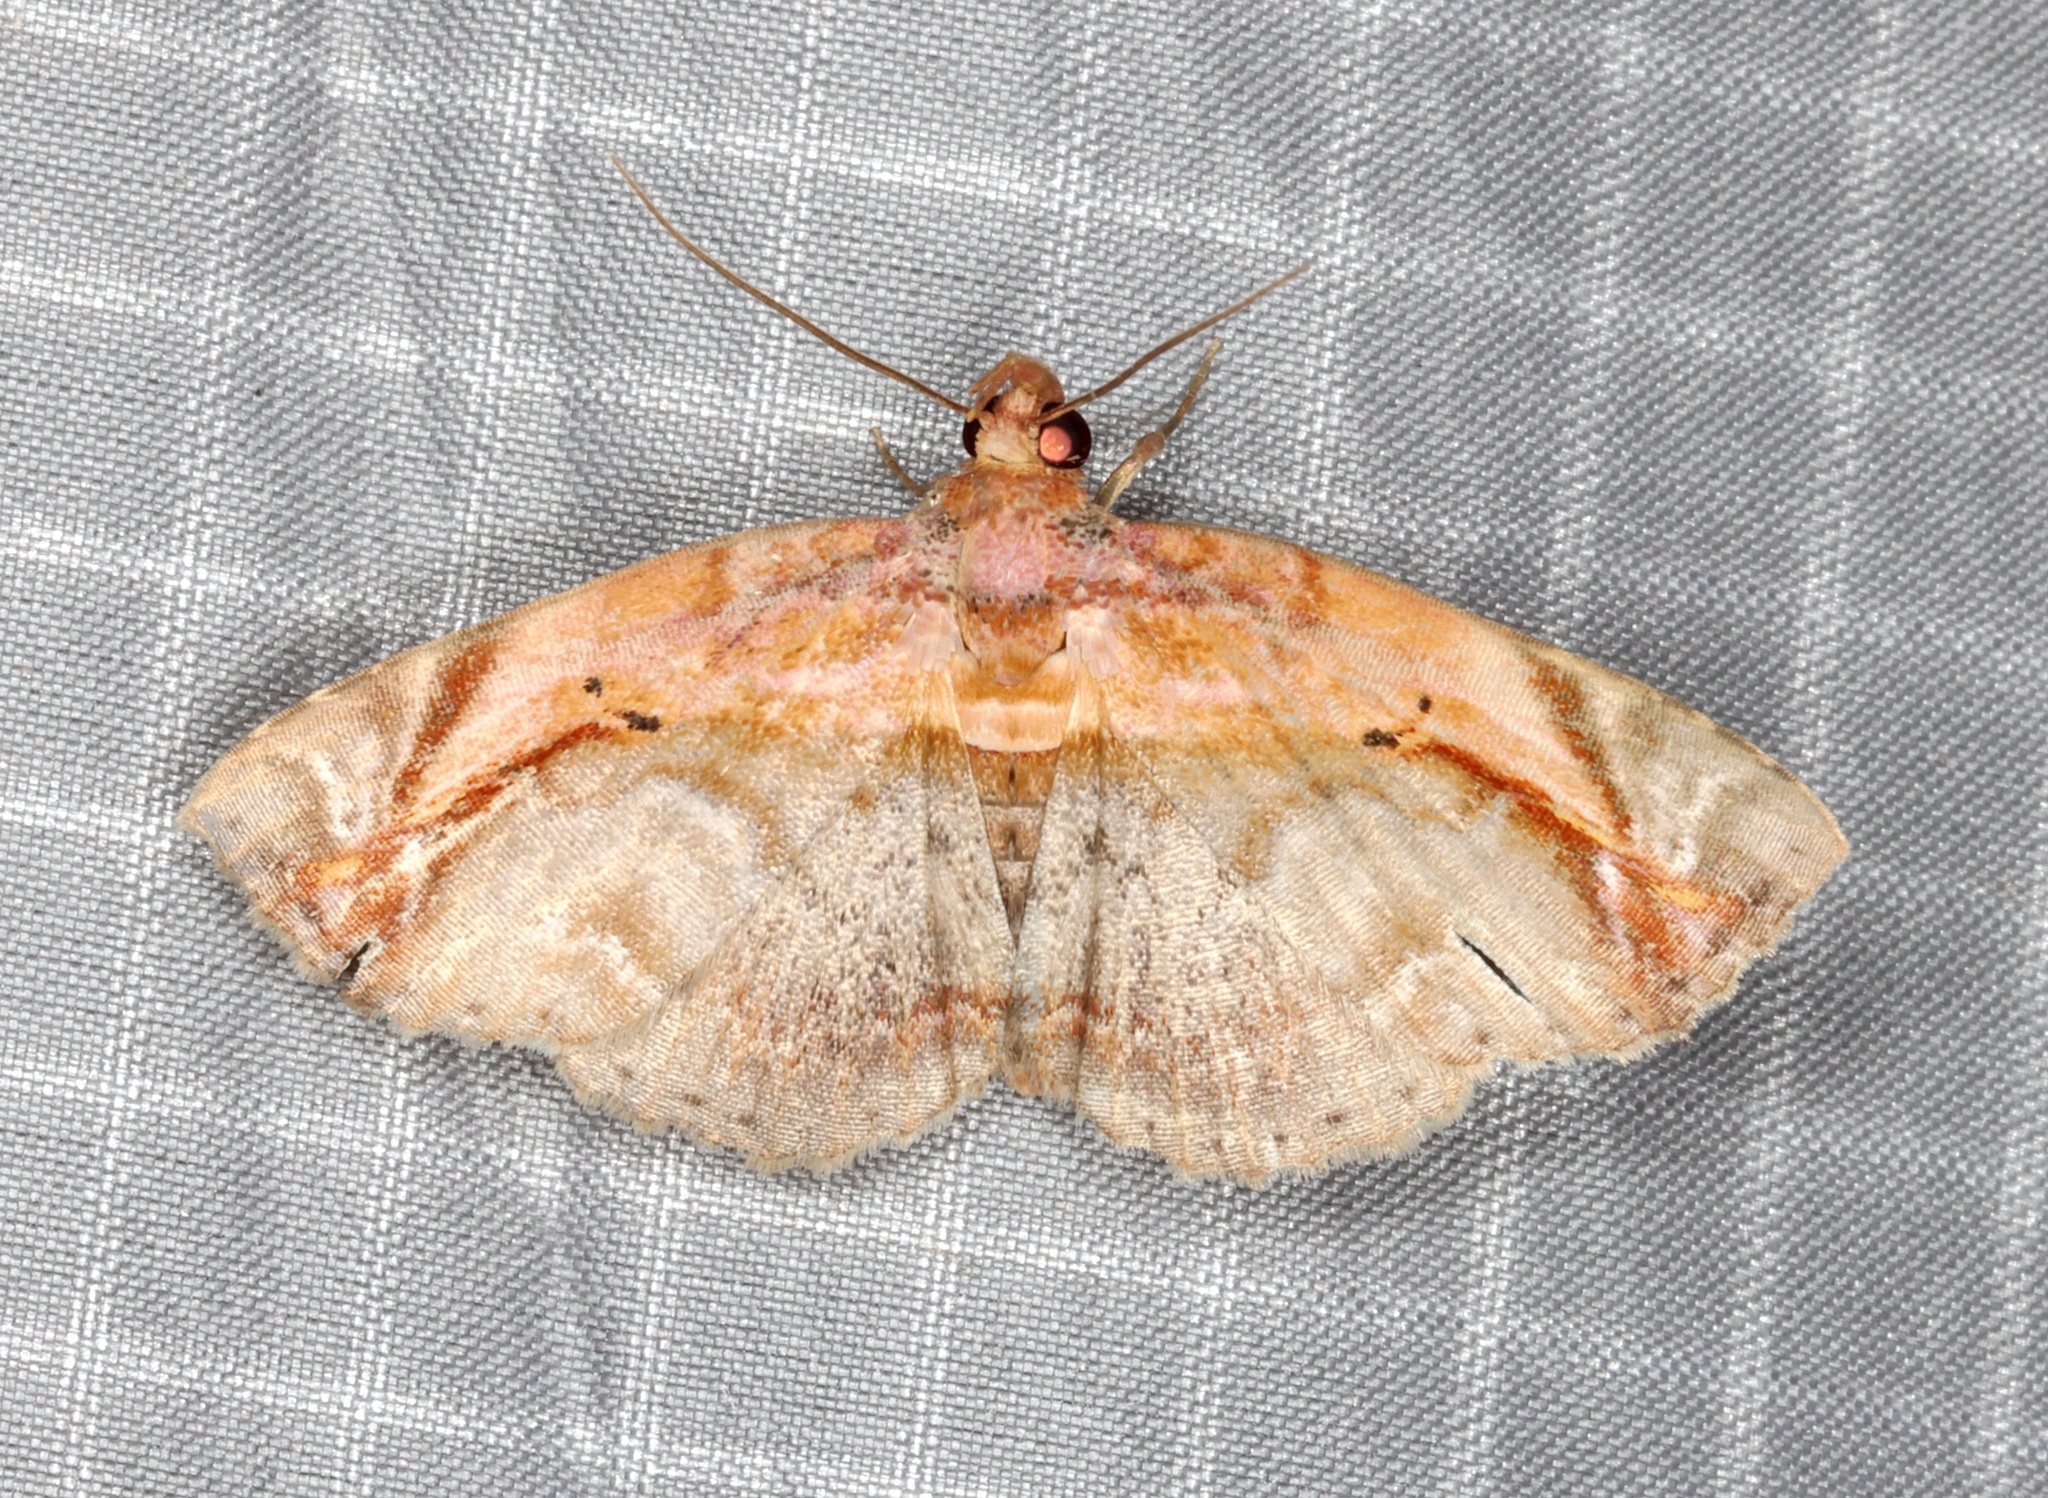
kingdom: Animalia
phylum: Arthropoda
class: Insecta
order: Lepidoptera
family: Noctuidae
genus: Lophoruza
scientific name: Lophoruza pulcherrima
